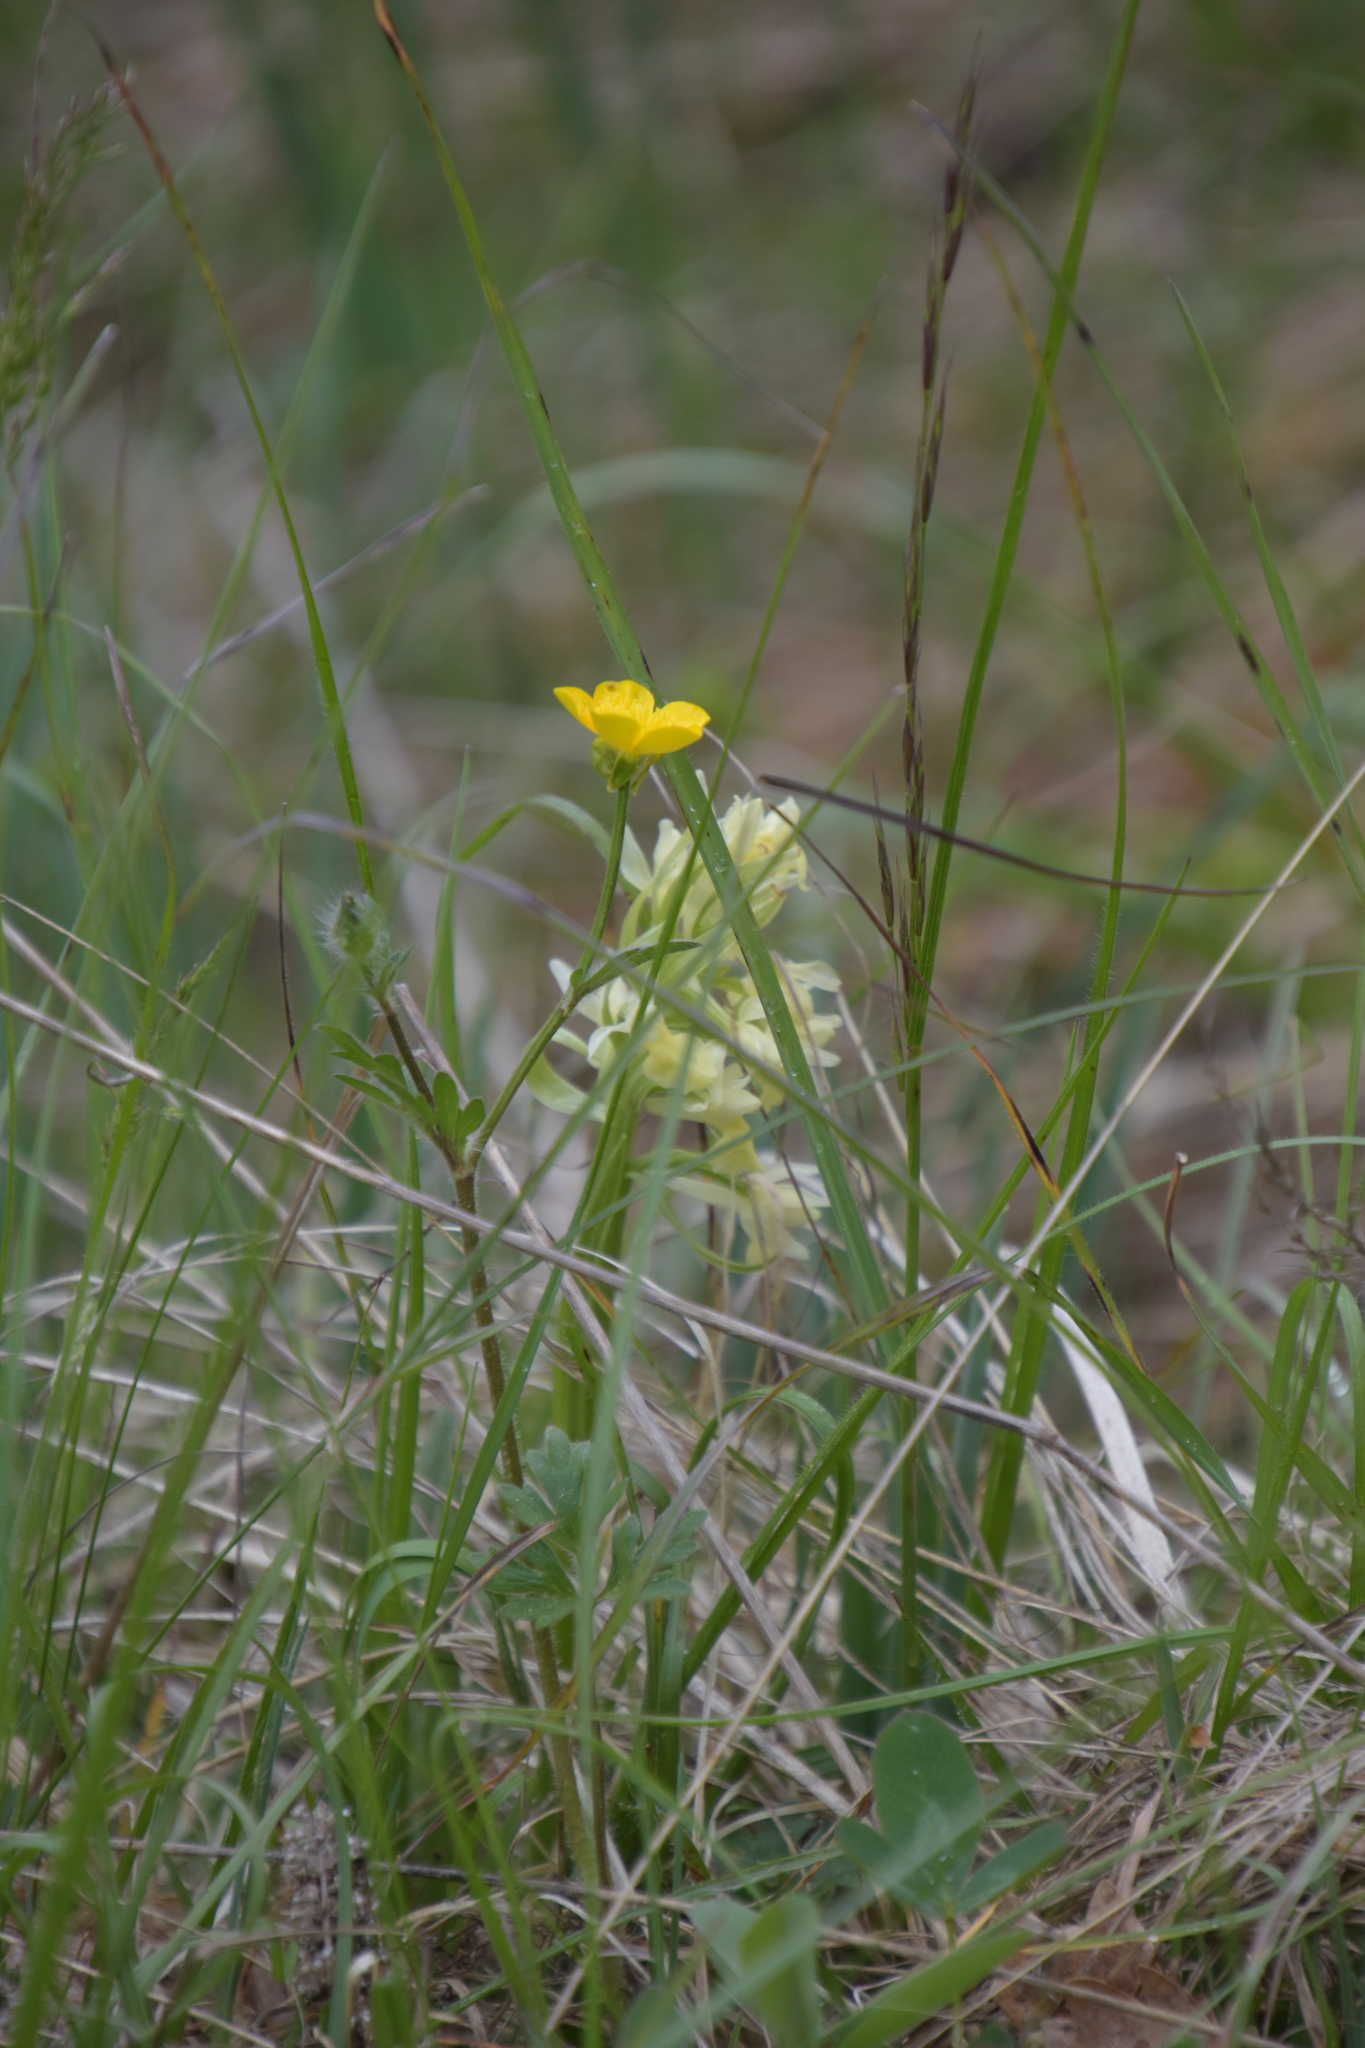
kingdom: Plantae
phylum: Tracheophyta
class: Liliopsida
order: Asparagales
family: Orchidaceae
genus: Dactylorhiza
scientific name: Dactylorhiza sambucina
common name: Elder-flowered orchid
